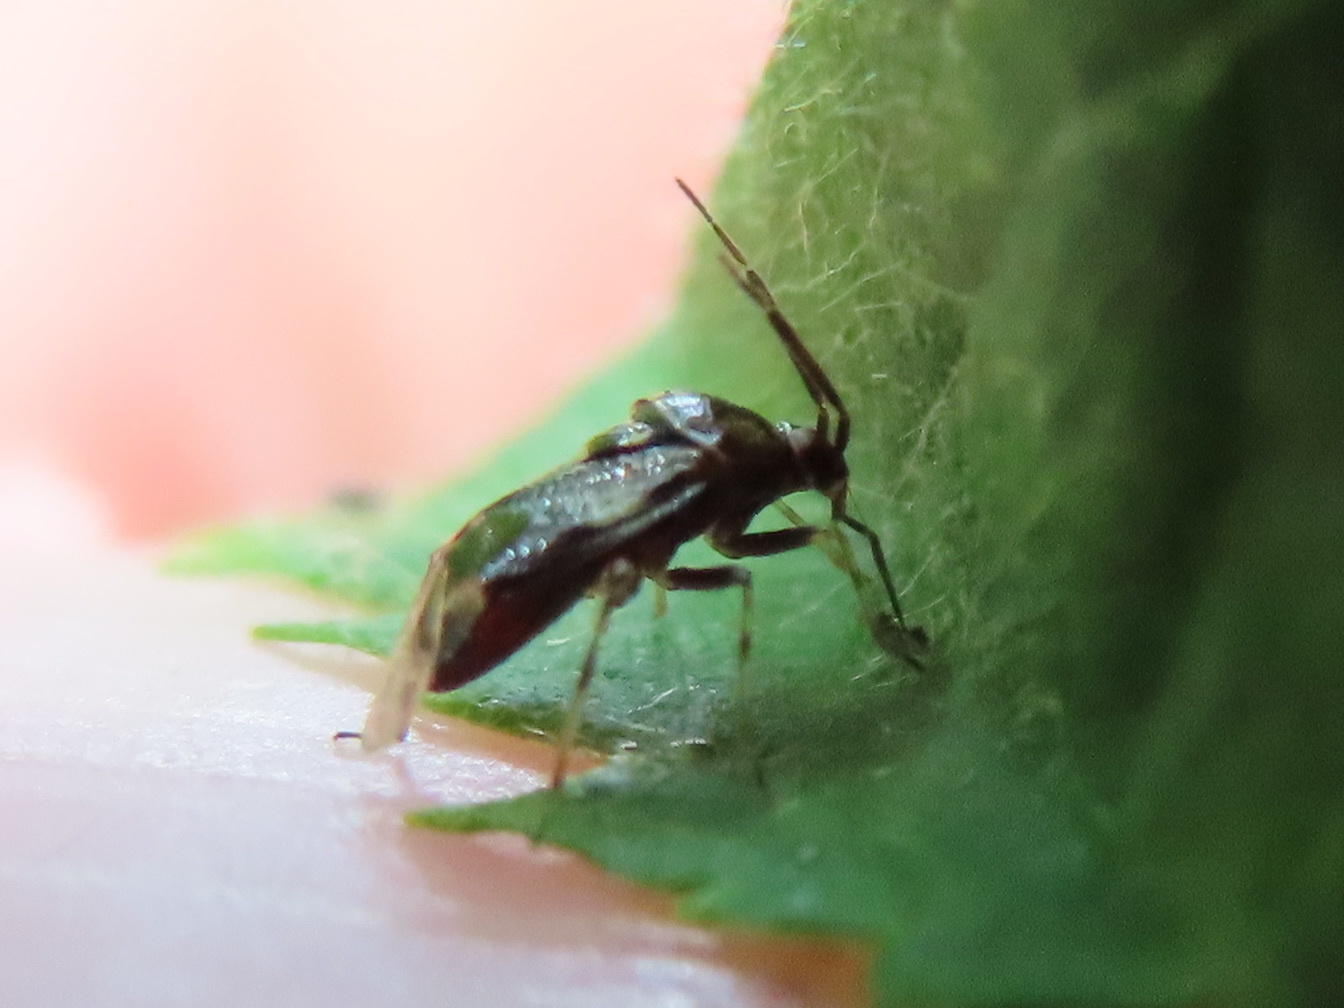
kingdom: Animalia
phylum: Arthropoda
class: Insecta
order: Hemiptera
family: Miridae
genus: Deraeocoris
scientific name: Deraeocoris nebulosus
